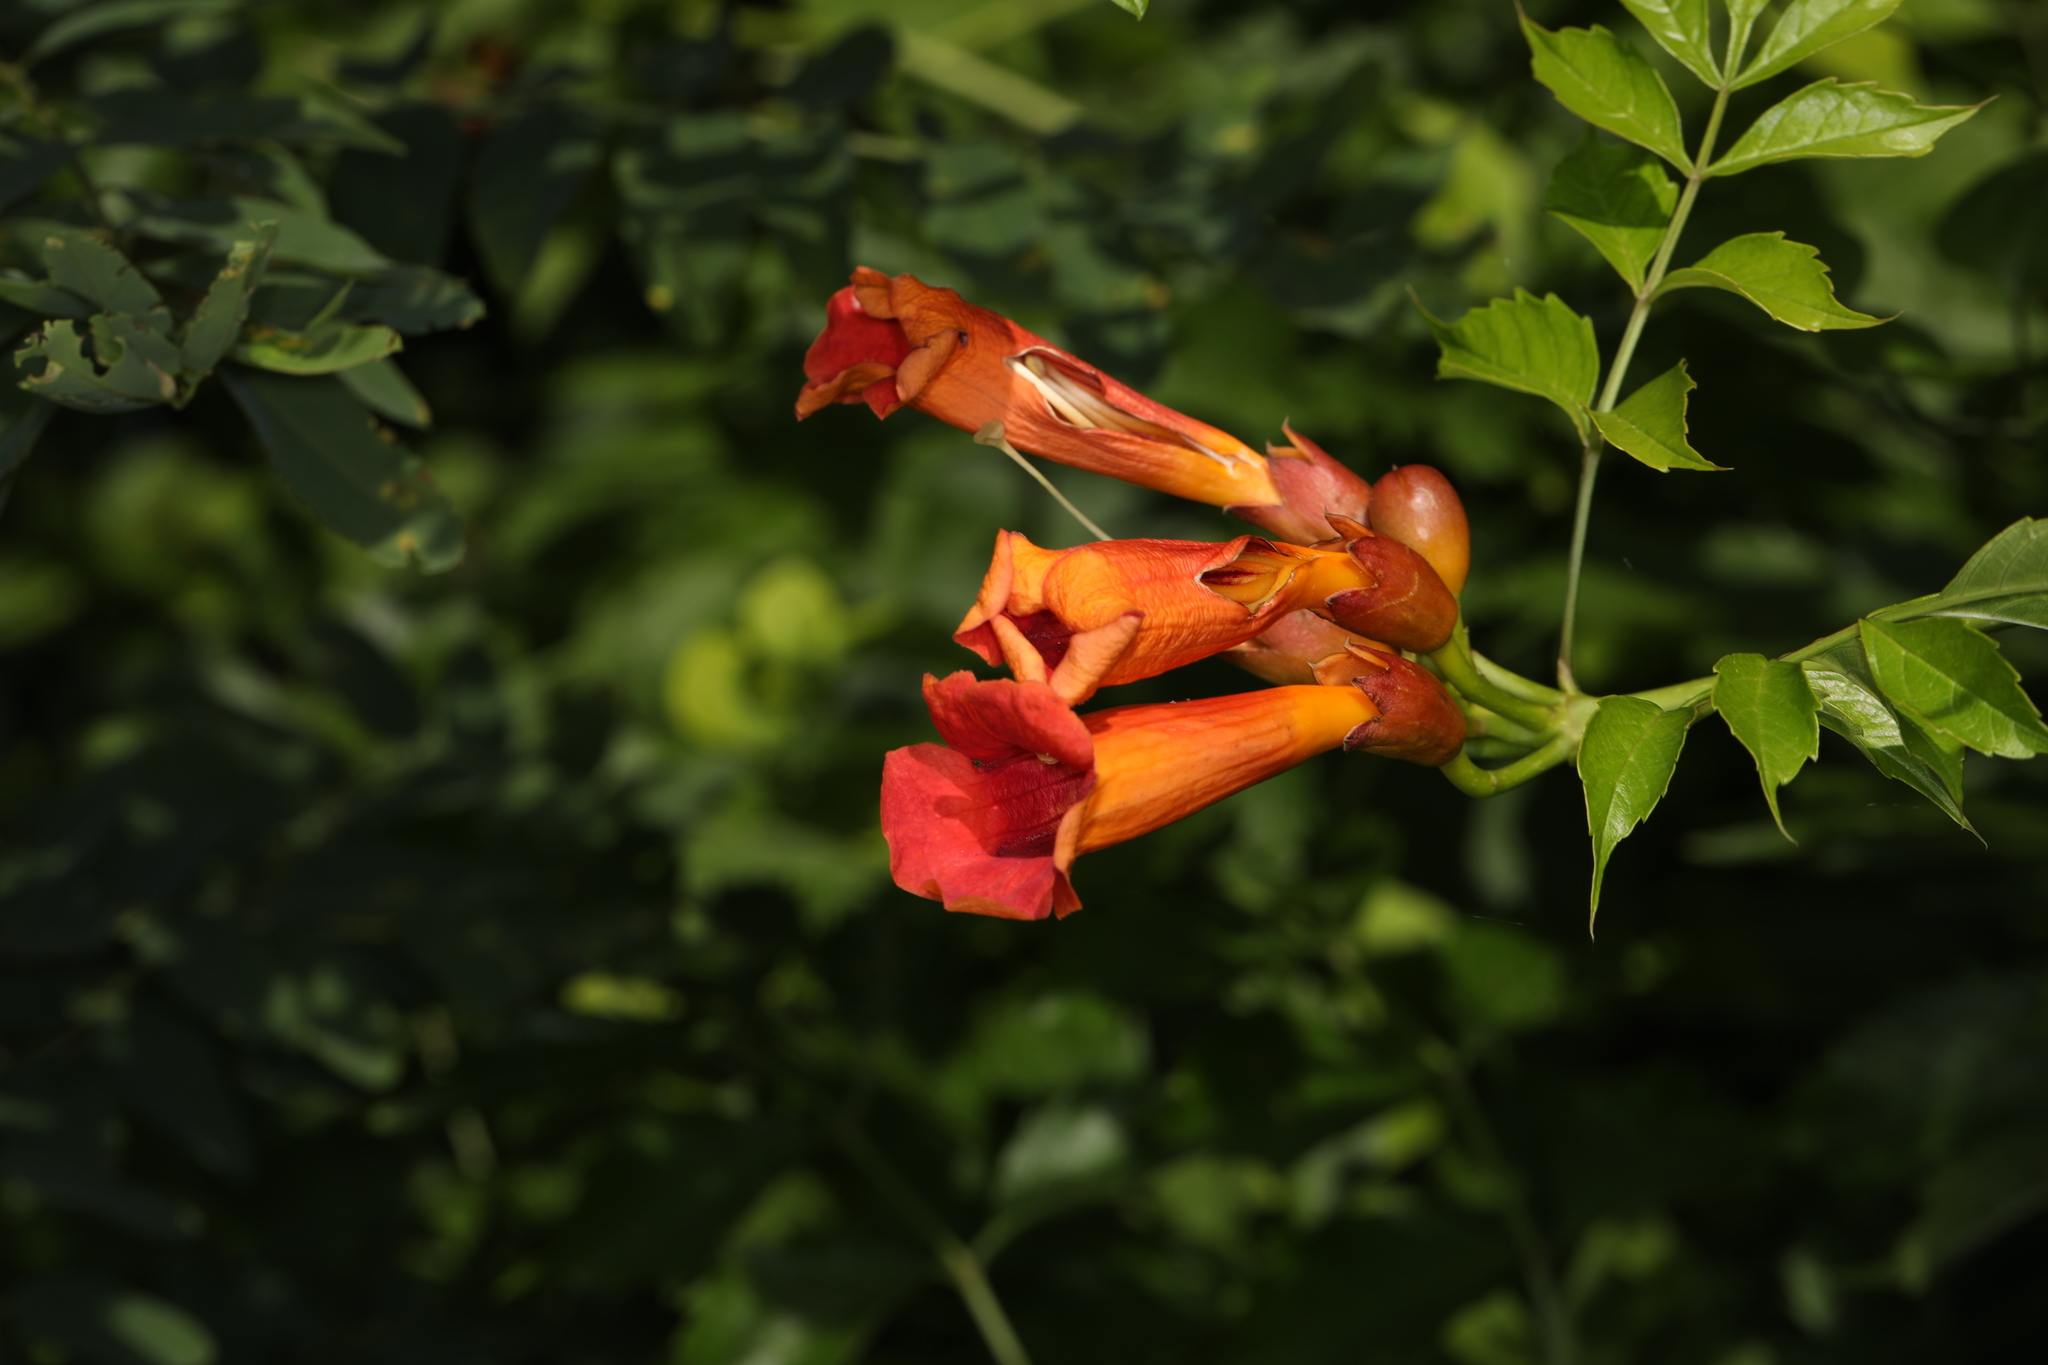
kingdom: Plantae
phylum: Tracheophyta
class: Magnoliopsida
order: Lamiales
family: Bignoniaceae
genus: Campsis
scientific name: Campsis radicans
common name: Trumpet-creeper
